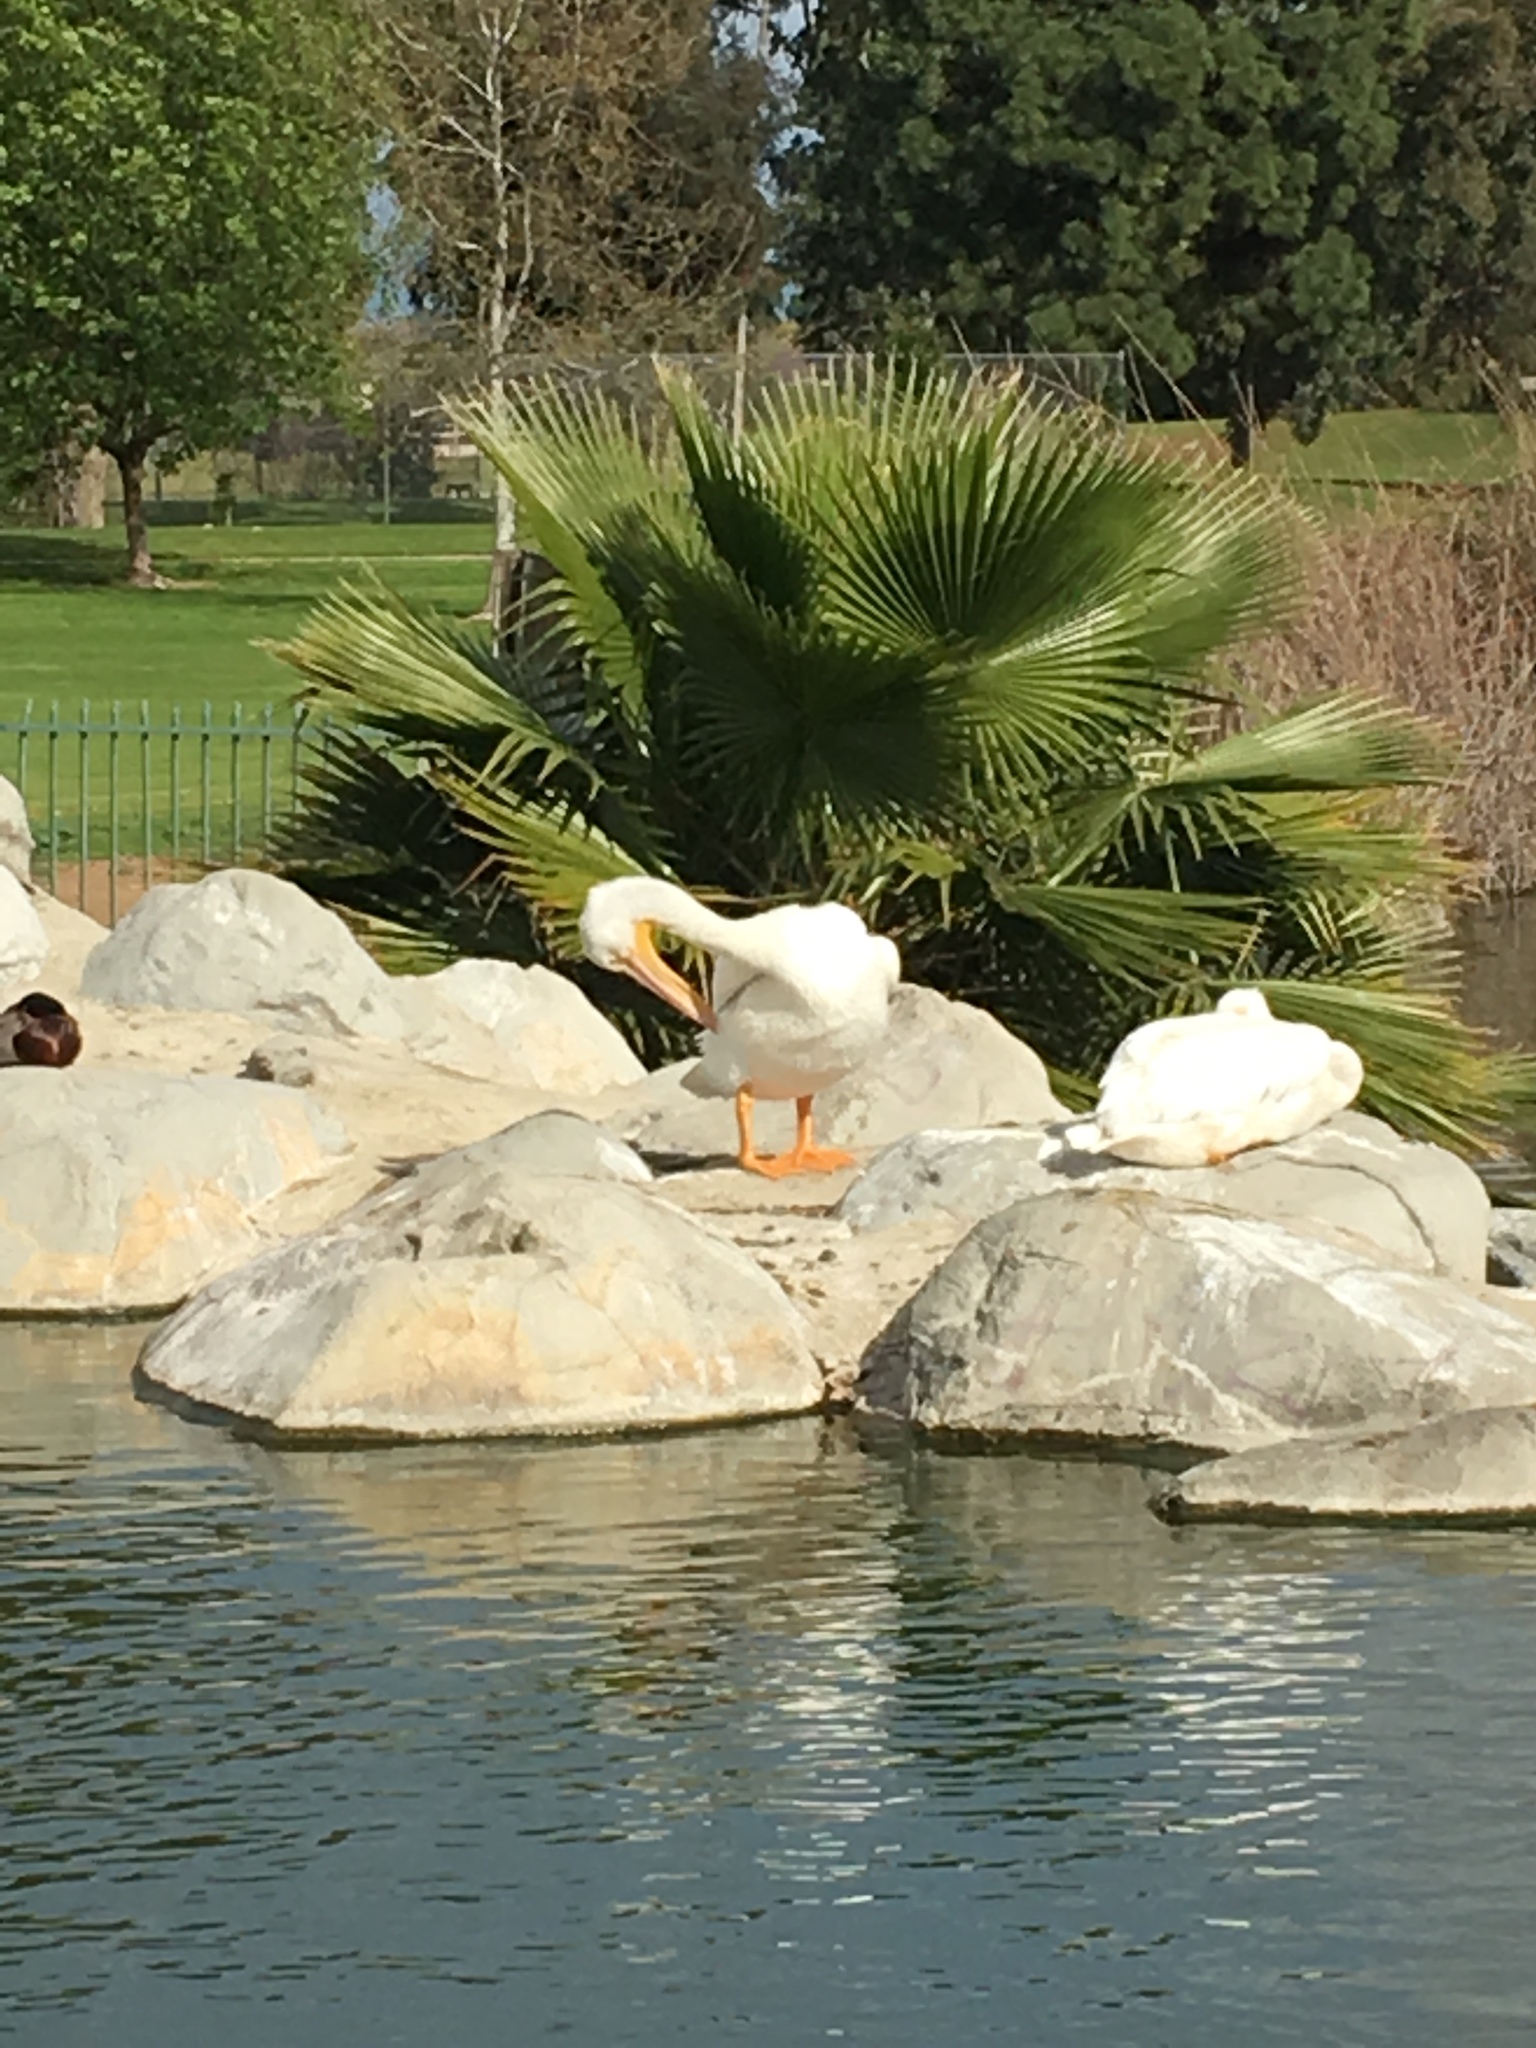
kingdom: Animalia
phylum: Chordata
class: Aves
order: Pelecaniformes
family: Pelecanidae
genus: Pelecanus
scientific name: Pelecanus erythrorhynchos
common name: American white pelican
